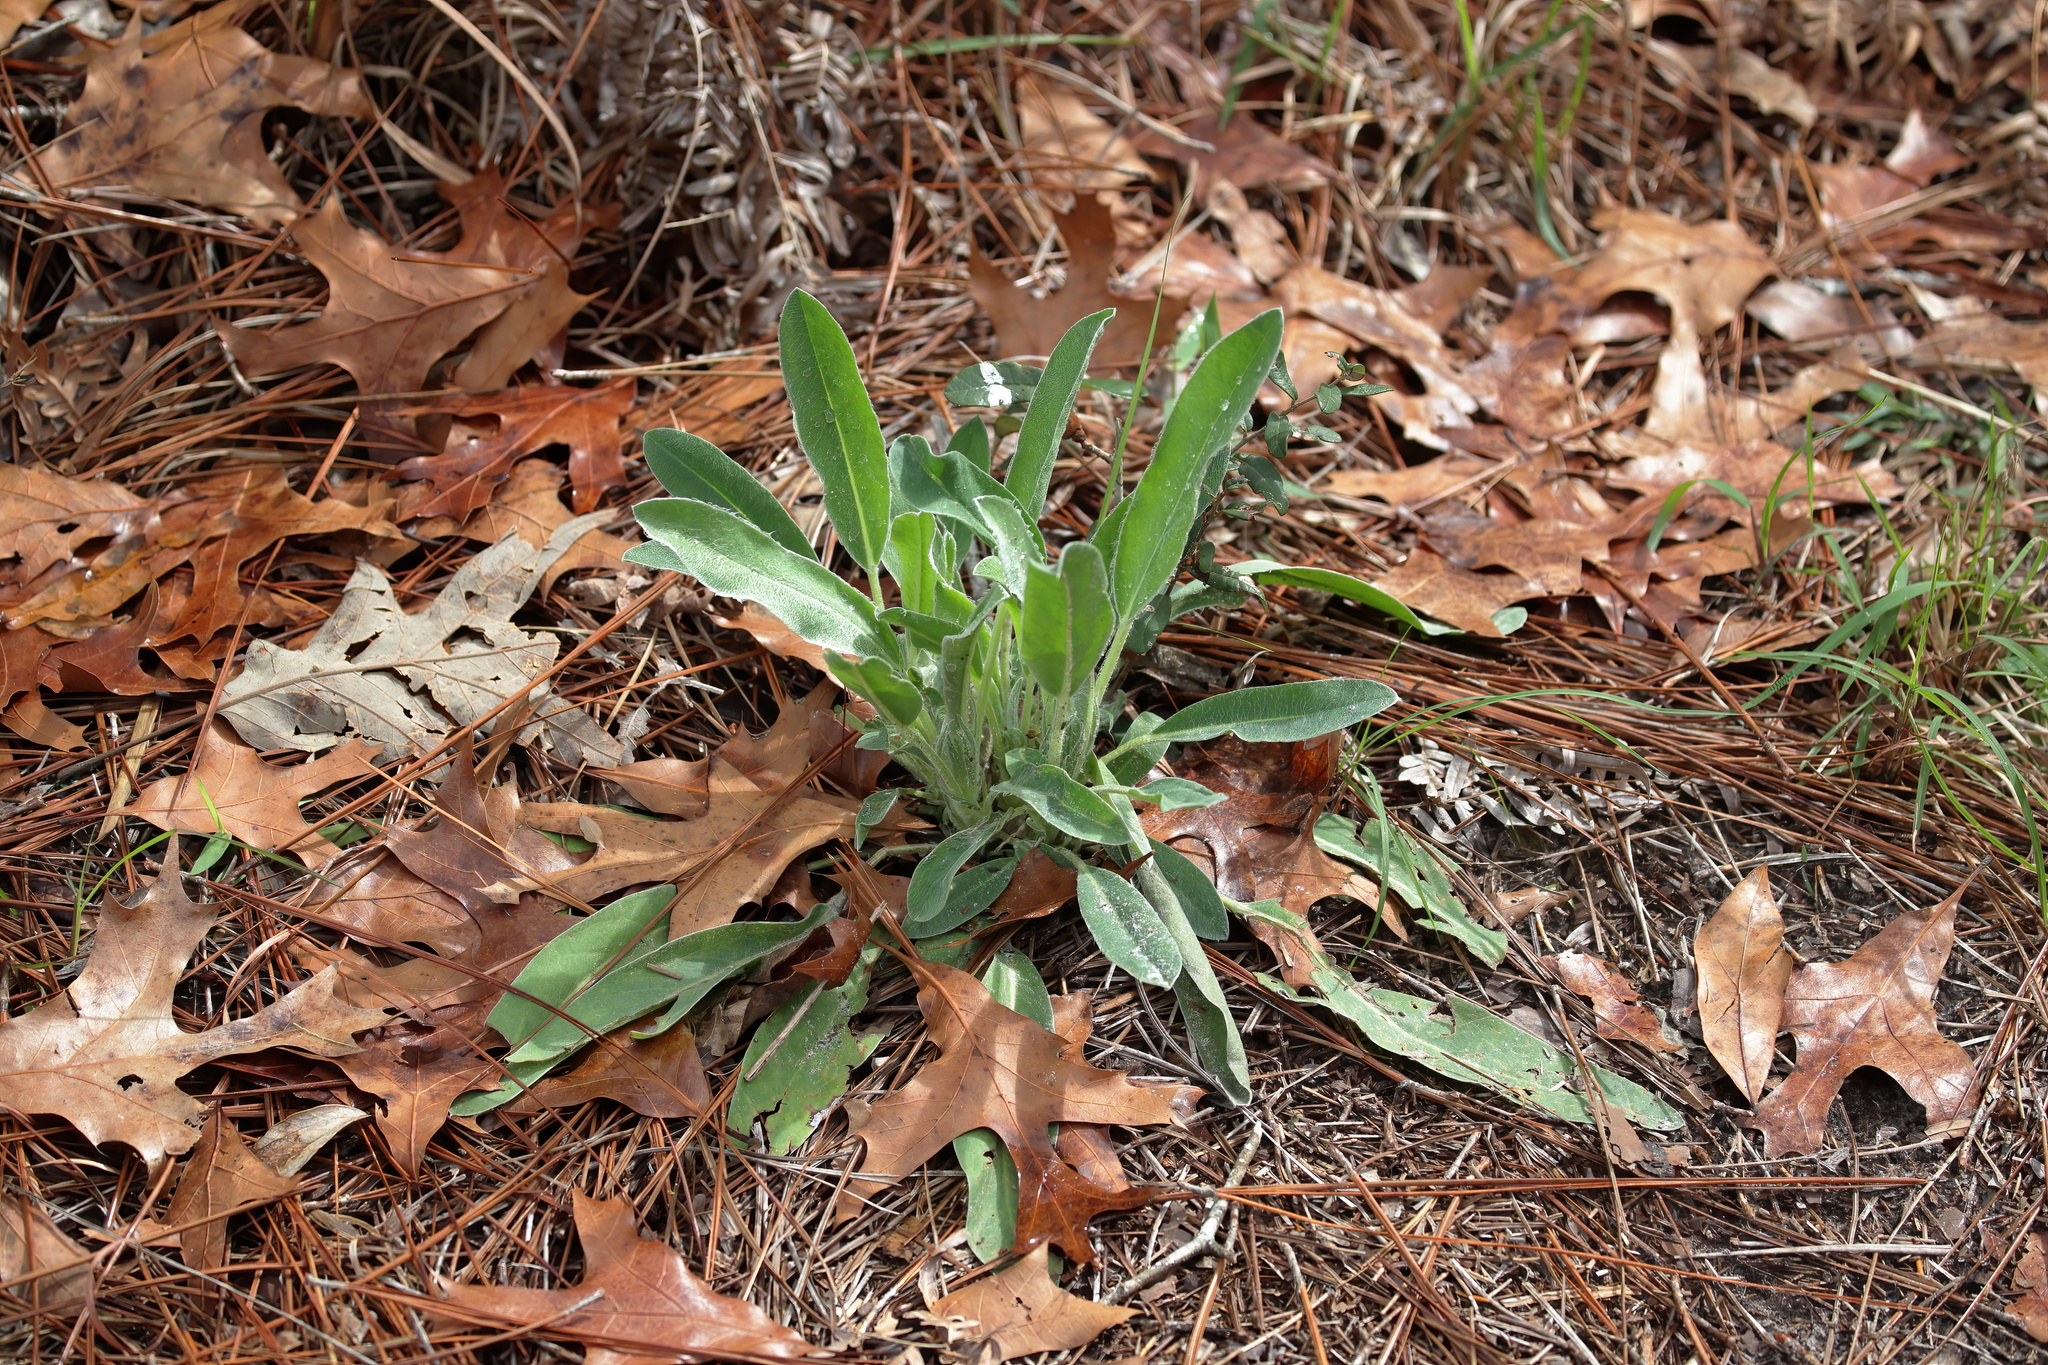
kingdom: Plantae
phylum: Tracheophyta
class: Magnoliopsida
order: Fabales
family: Fabaceae
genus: Lupinus
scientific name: Lupinus villosus
